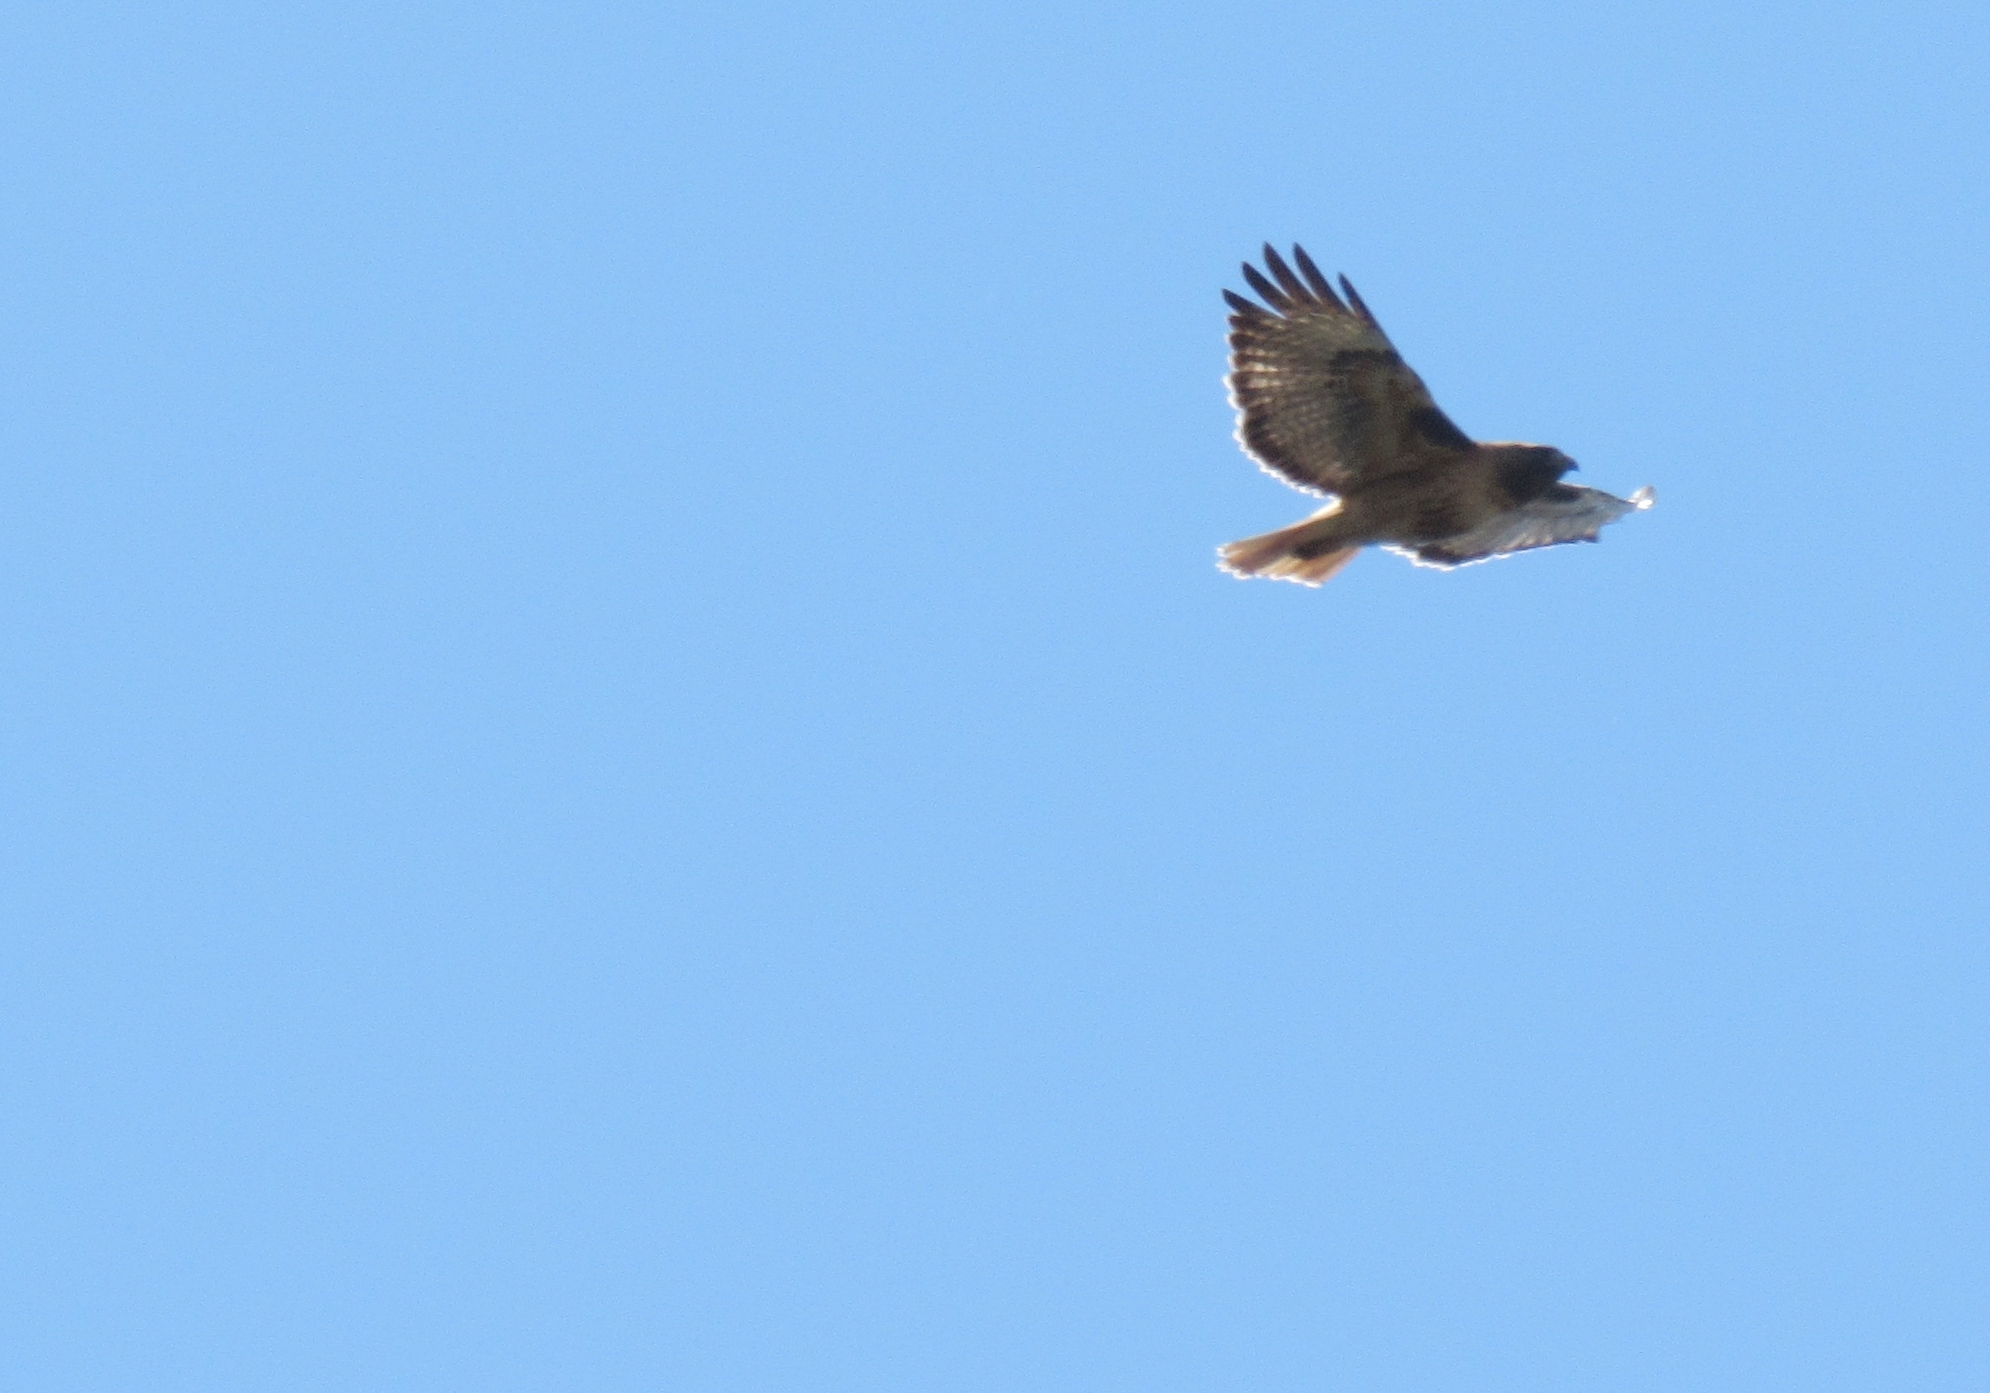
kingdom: Animalia
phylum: Chordata
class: Aves
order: Accipitriformes
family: Accipitridae
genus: Buteo
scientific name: Buteo jamaicensis
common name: Red-tailed hawk
